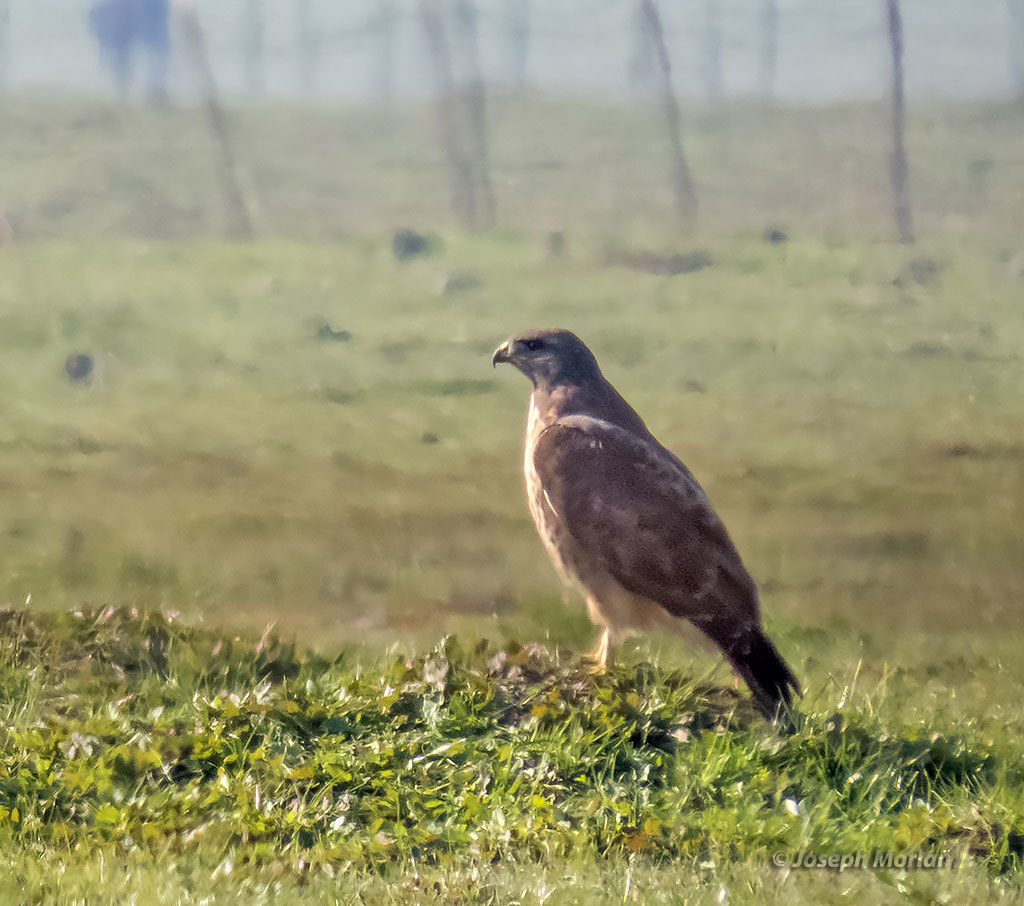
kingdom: Animalia
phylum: Chordata
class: Aves
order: Accipitriformes
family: Accipitridae
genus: Buteo
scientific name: Buteo jamaicensis
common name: Red-tailed hawk
